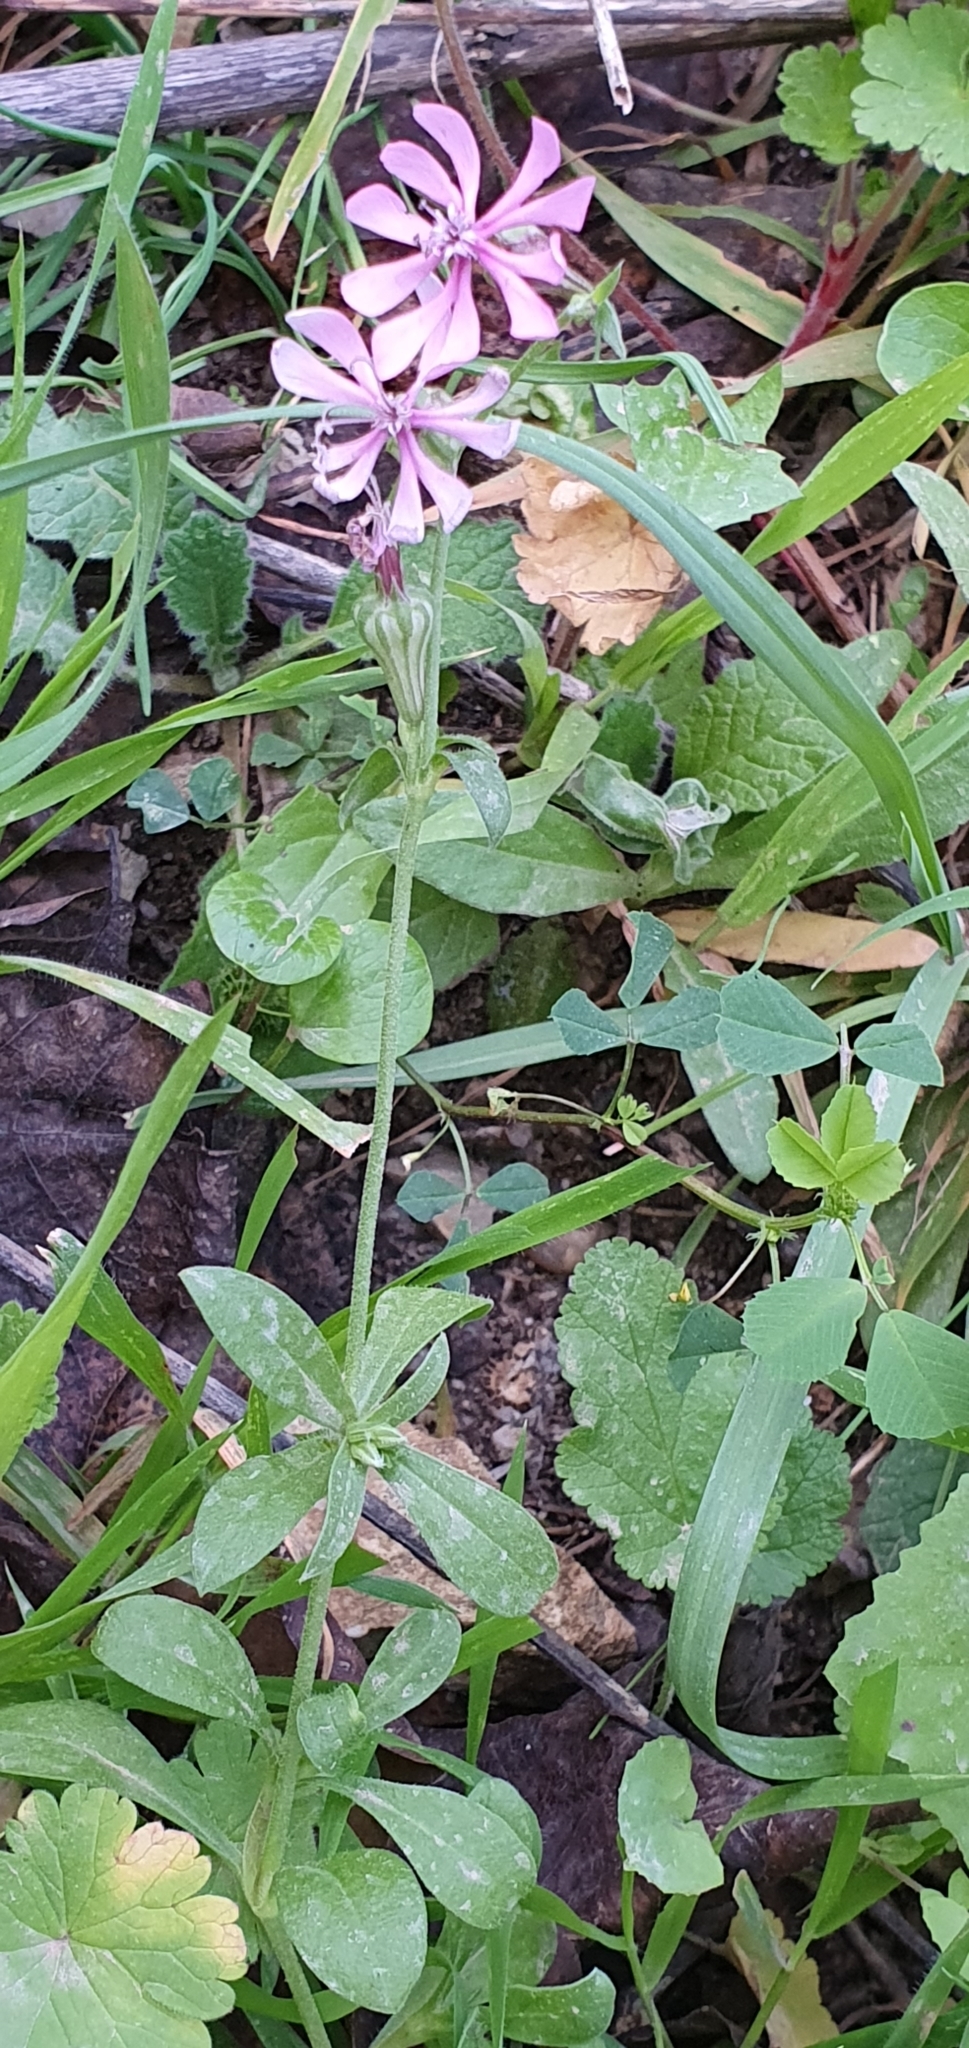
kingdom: Plantae
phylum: Tracheophyta
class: Magnoliopsida
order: Caryophyllales
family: Caryophyllaceae
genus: Silene
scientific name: Silene colorata
